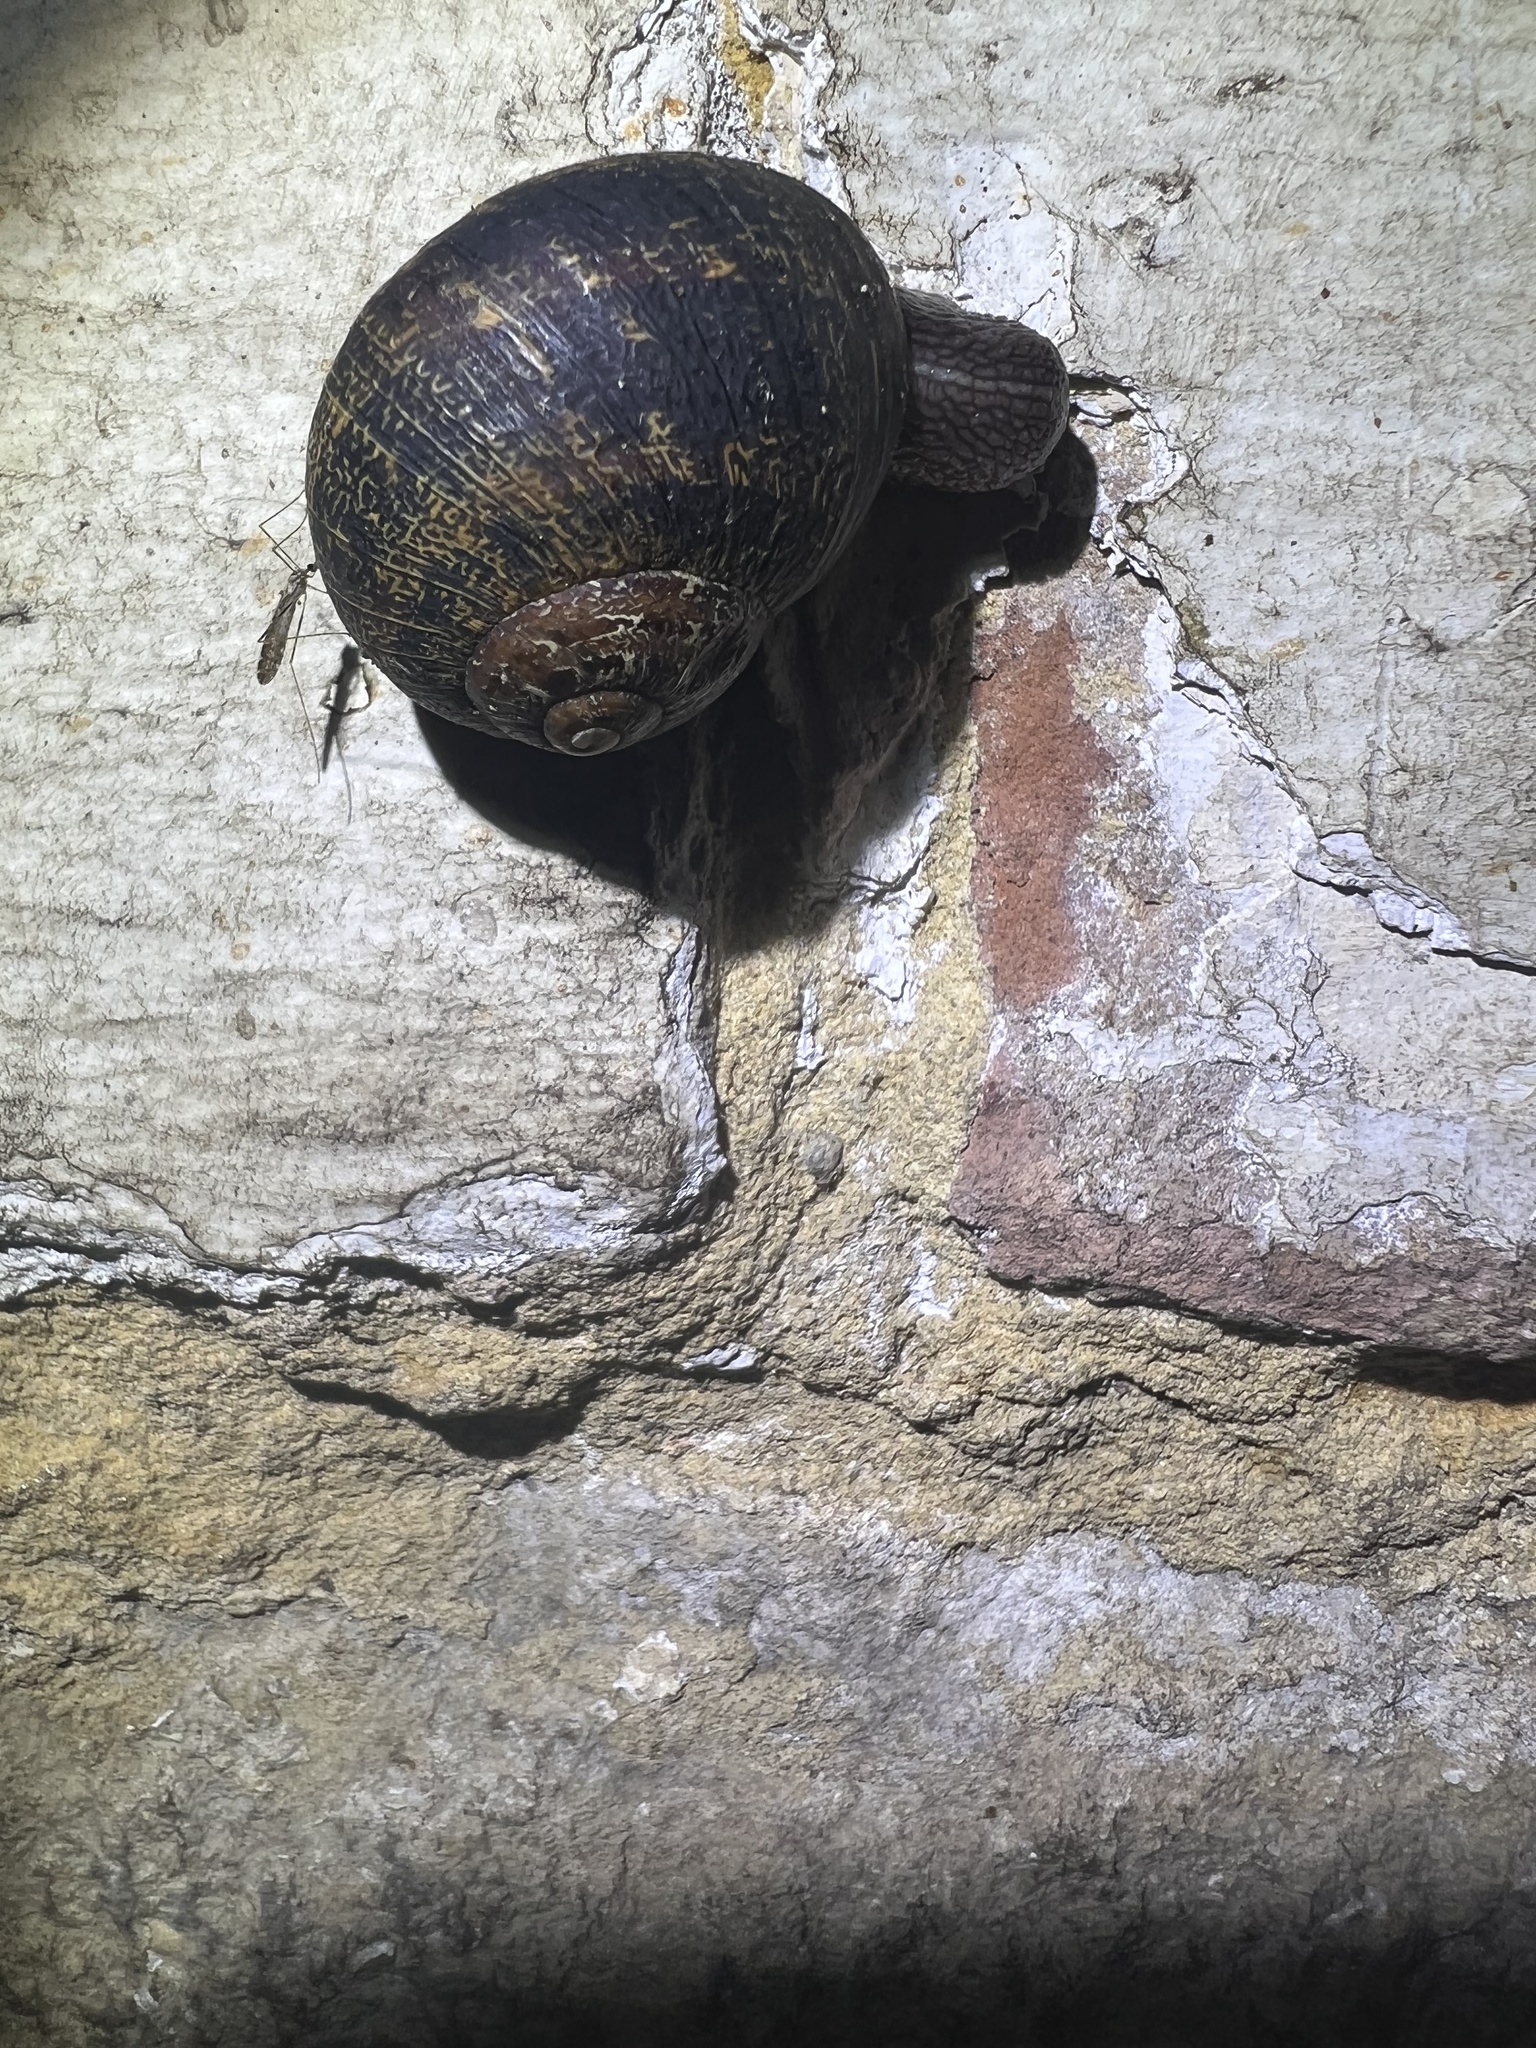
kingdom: Animalia
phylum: Mollusca
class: Gastropoda
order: Stylommatophora
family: Helicidae
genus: Cornu
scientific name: Cornu aspersum
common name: Brown garden snail
